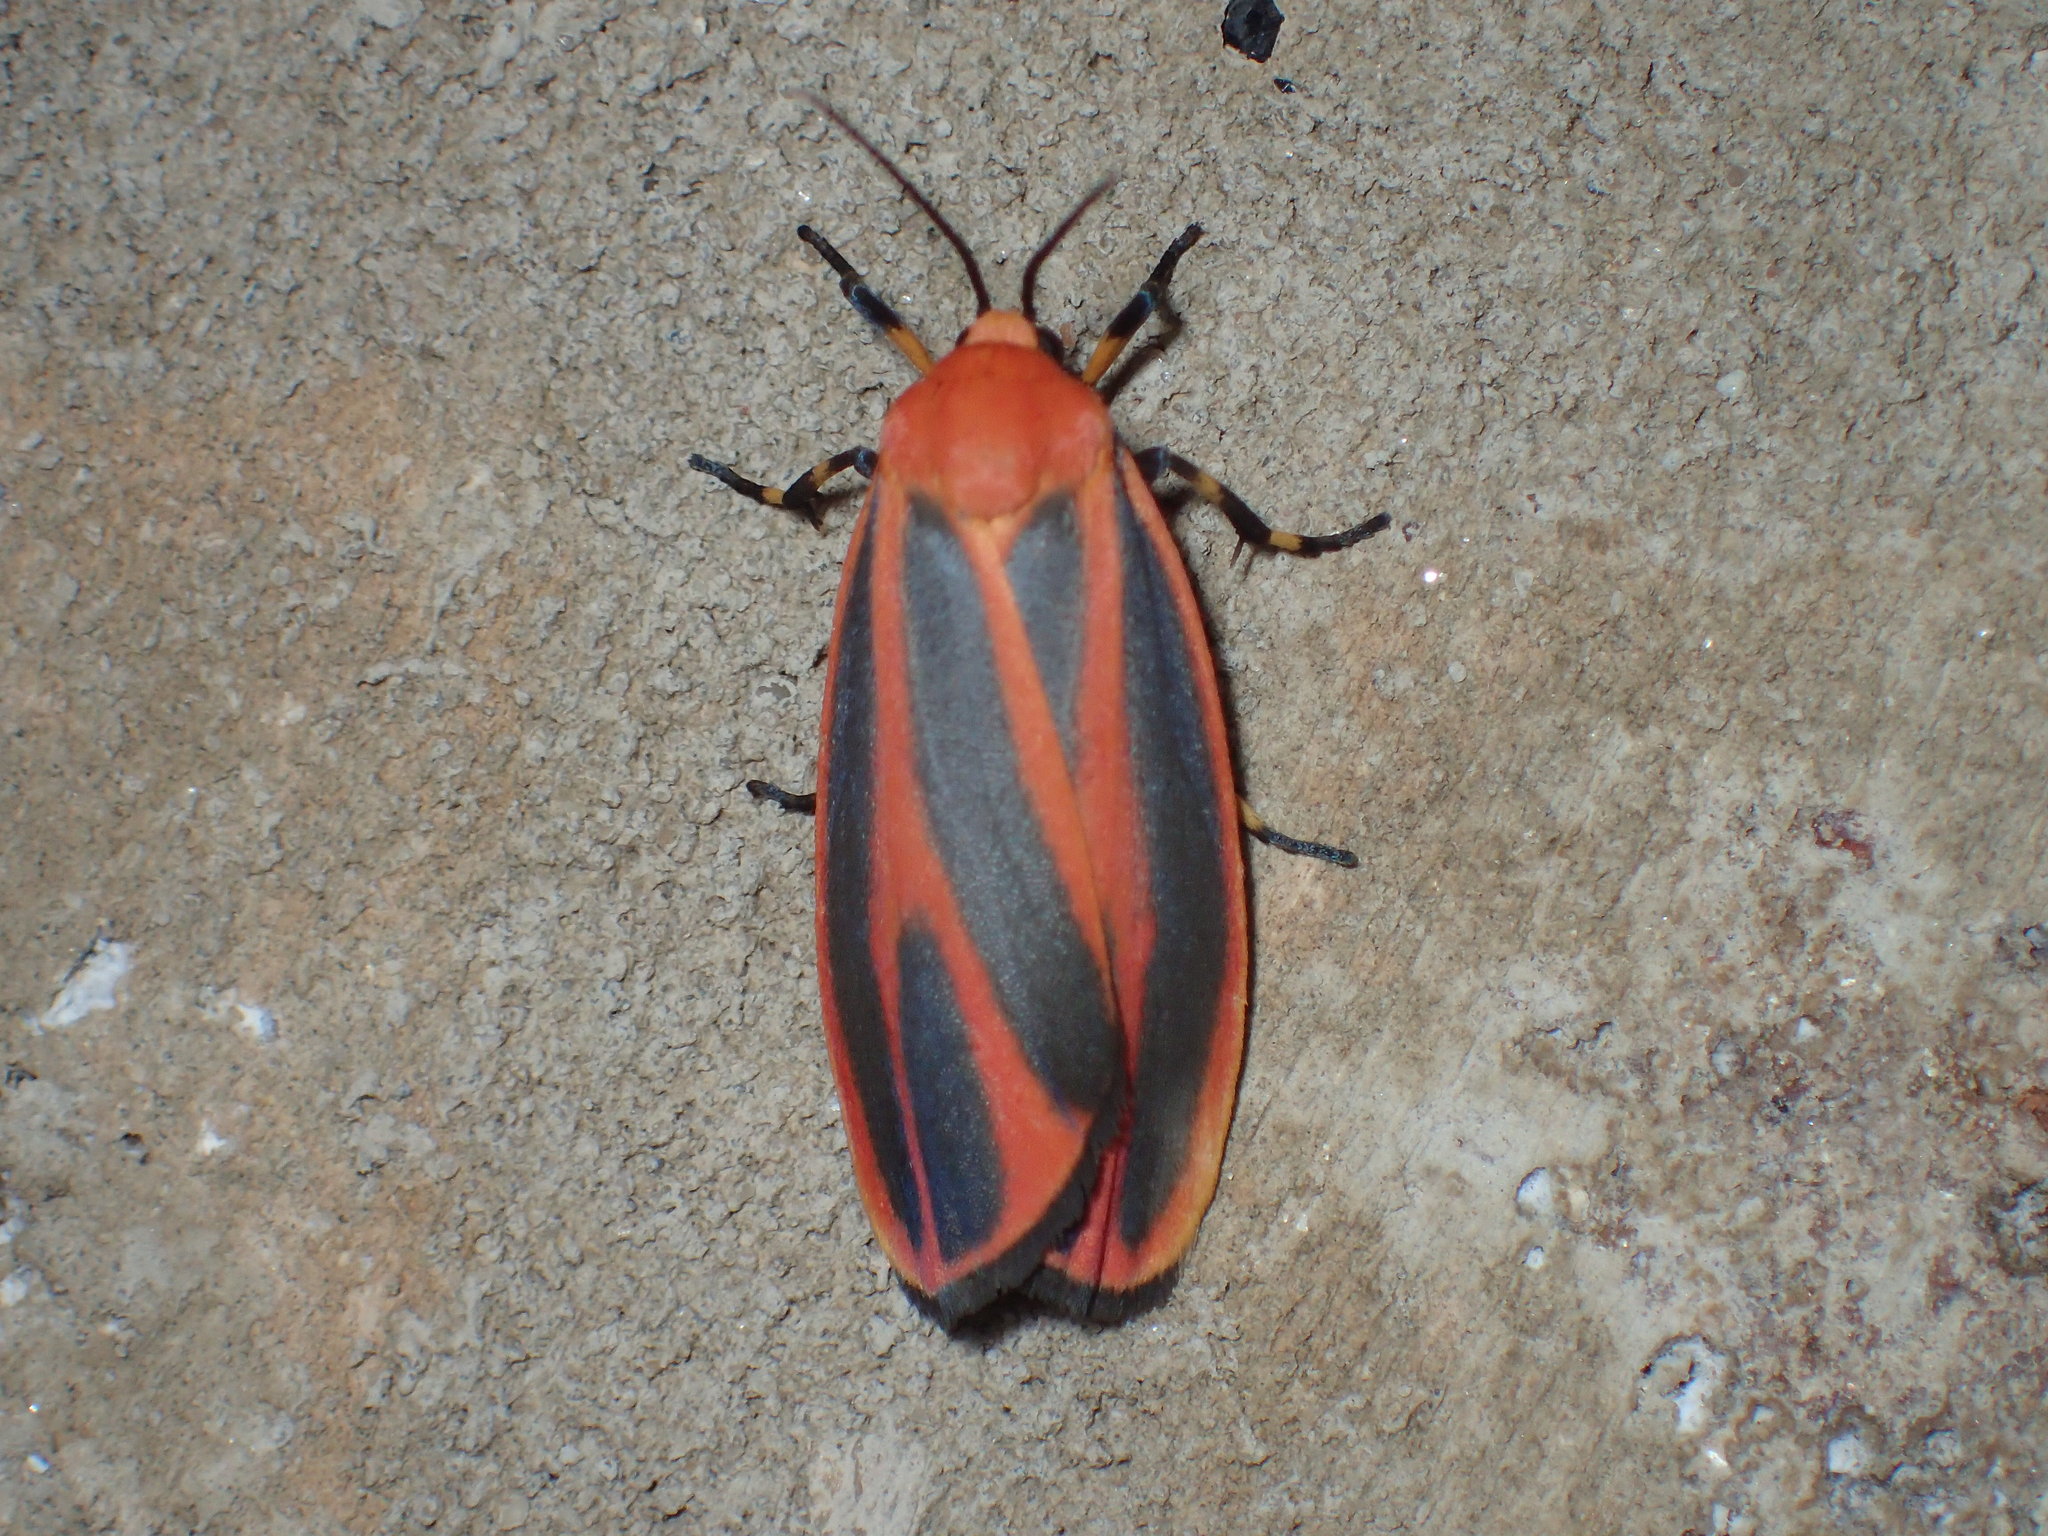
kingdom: Animalia
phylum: Arthropoda
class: Insecta
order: Lepidoptera
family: Erebidae
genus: Hypoprepia
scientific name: Hypoprepia miniata
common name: Scarlet-winged lichen moth
